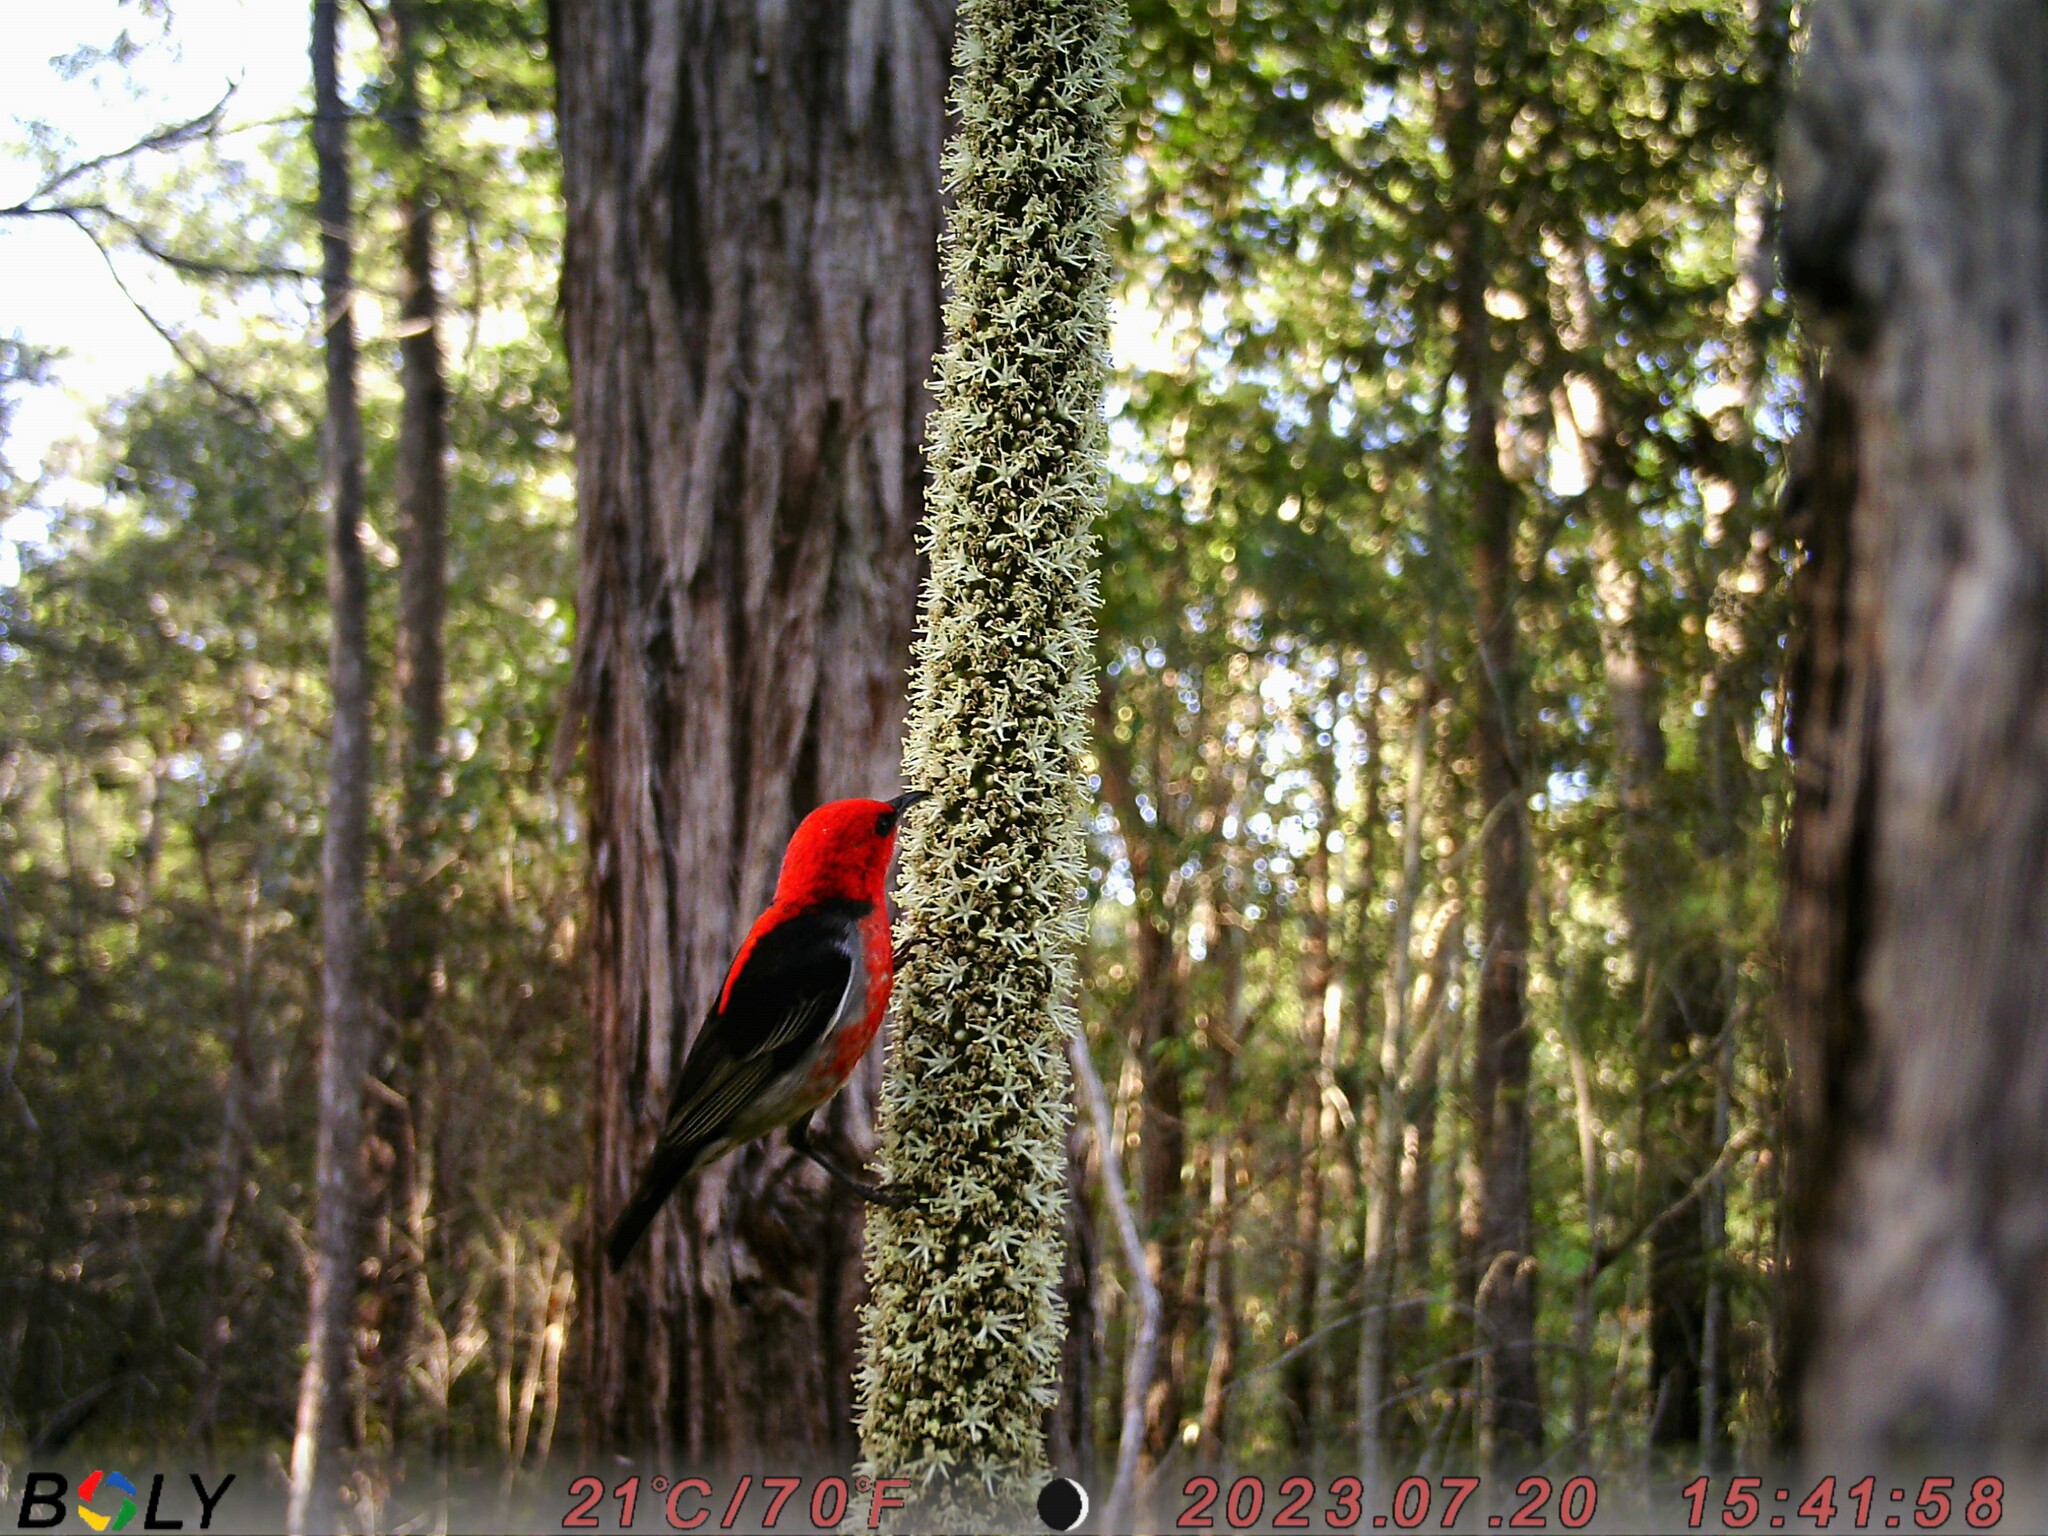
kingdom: Animalia
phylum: Chordata
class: Aves
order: Passeriformes
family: Meliphagidae
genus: Myzomela
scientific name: Myzomela sanguinolenta
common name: Scarlet myzomela
